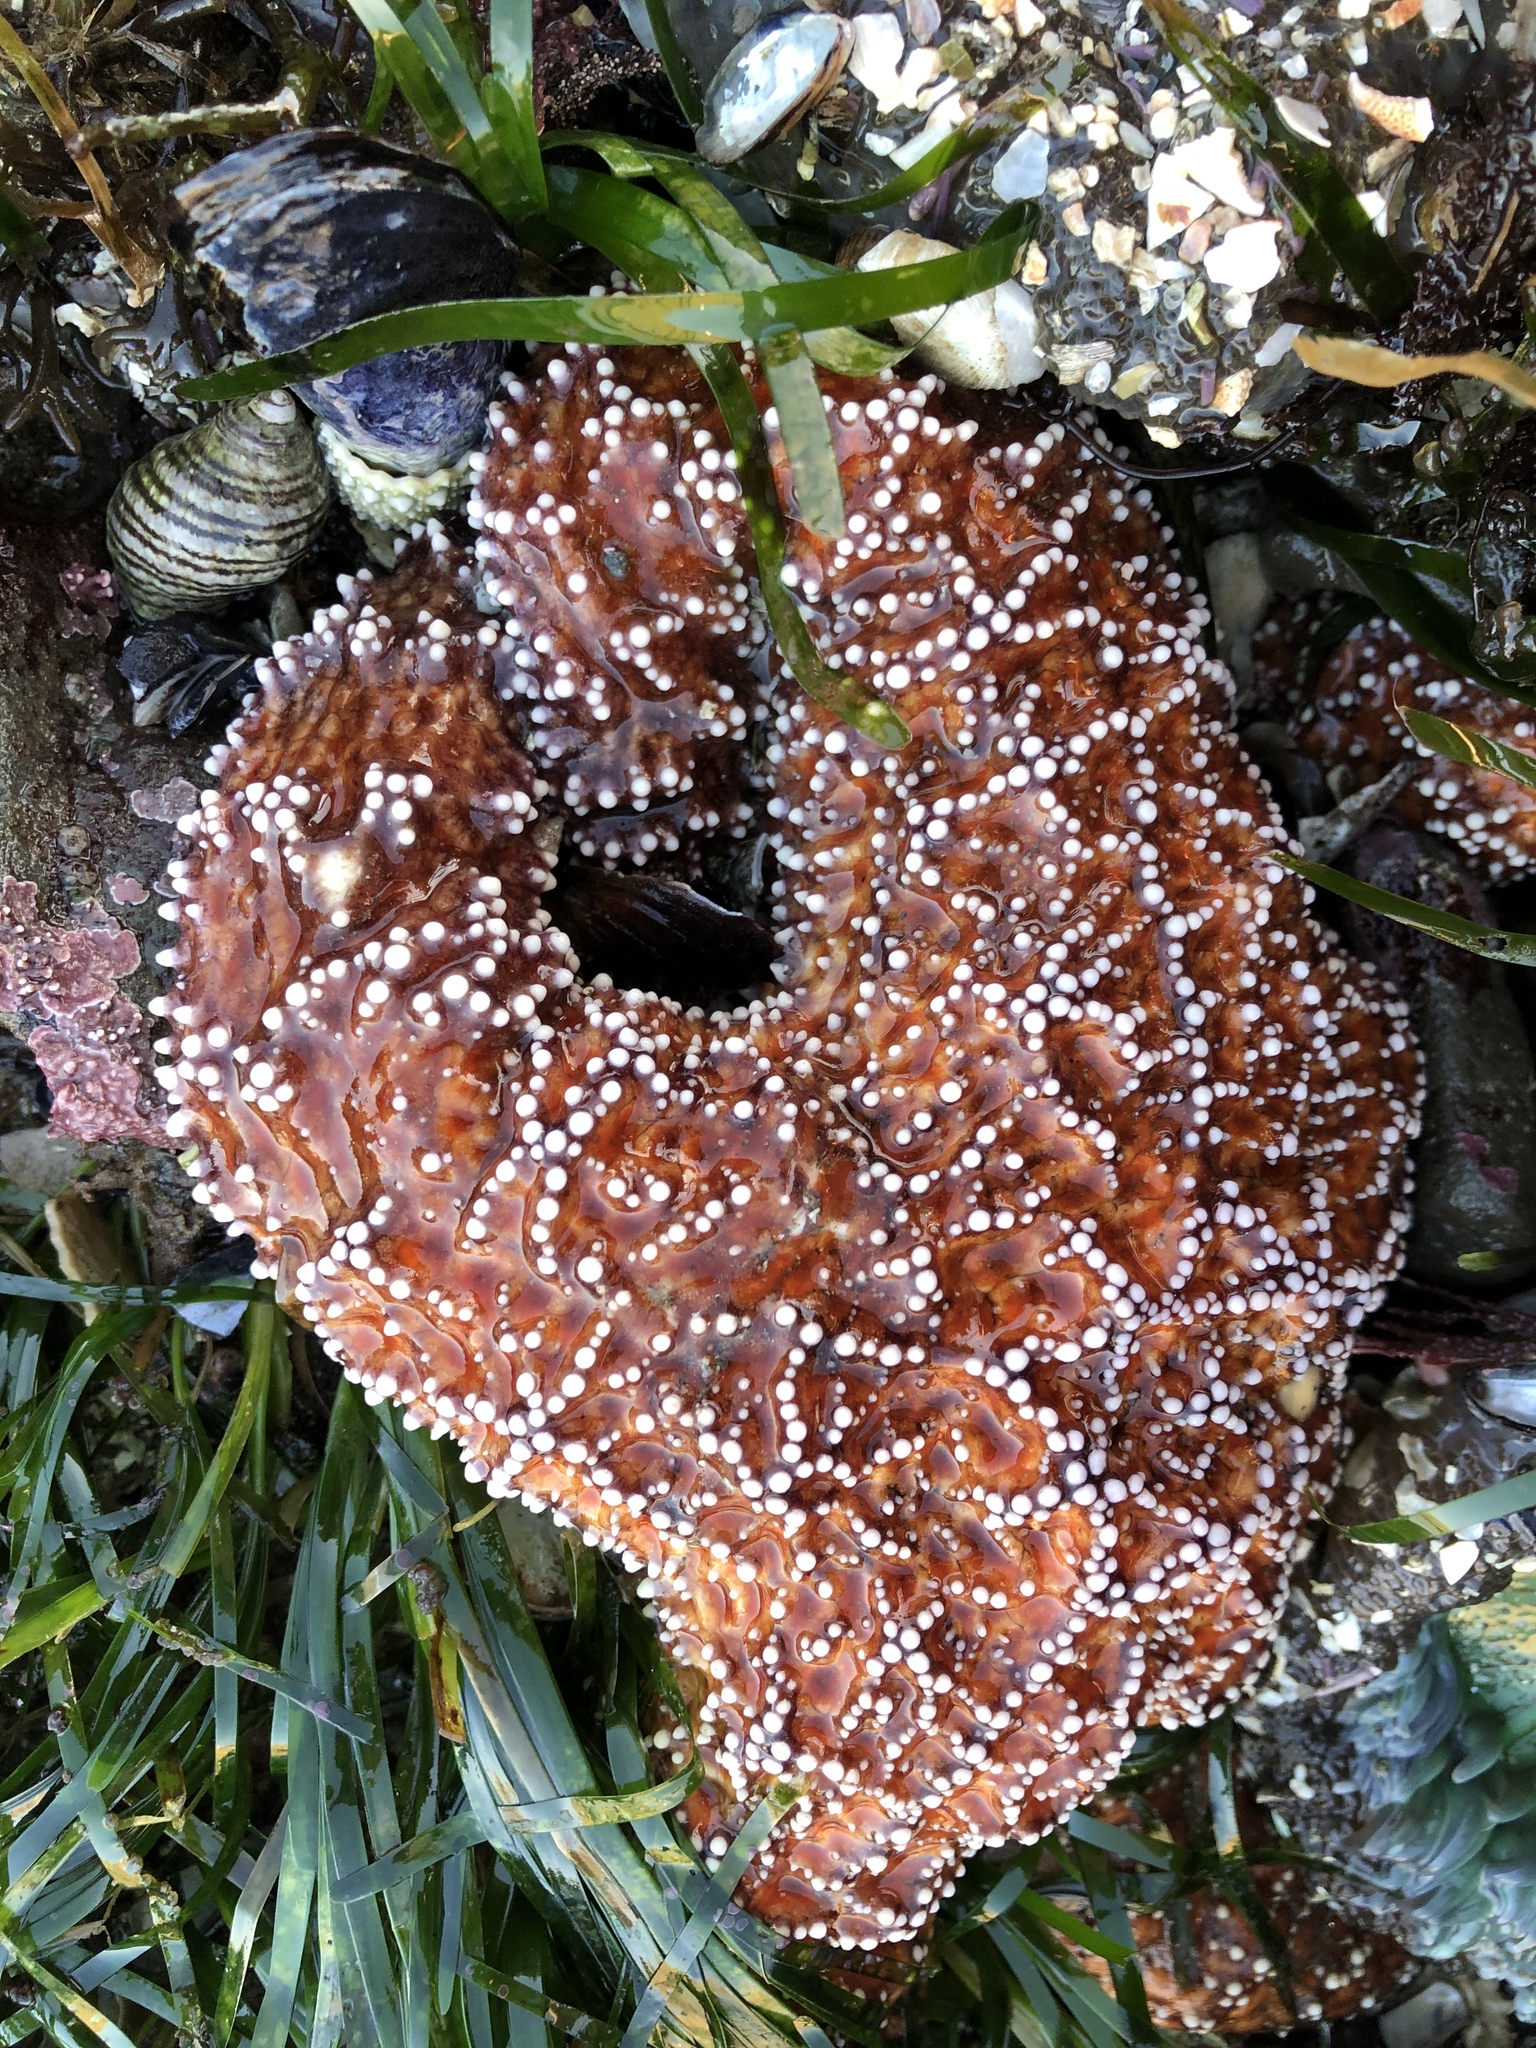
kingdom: Animalia
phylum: Echinodermata
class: Asteroidea
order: Forcipulatida
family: Asteriidae
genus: Pisaster
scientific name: Pisaster ochraceus
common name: Ochre stars
